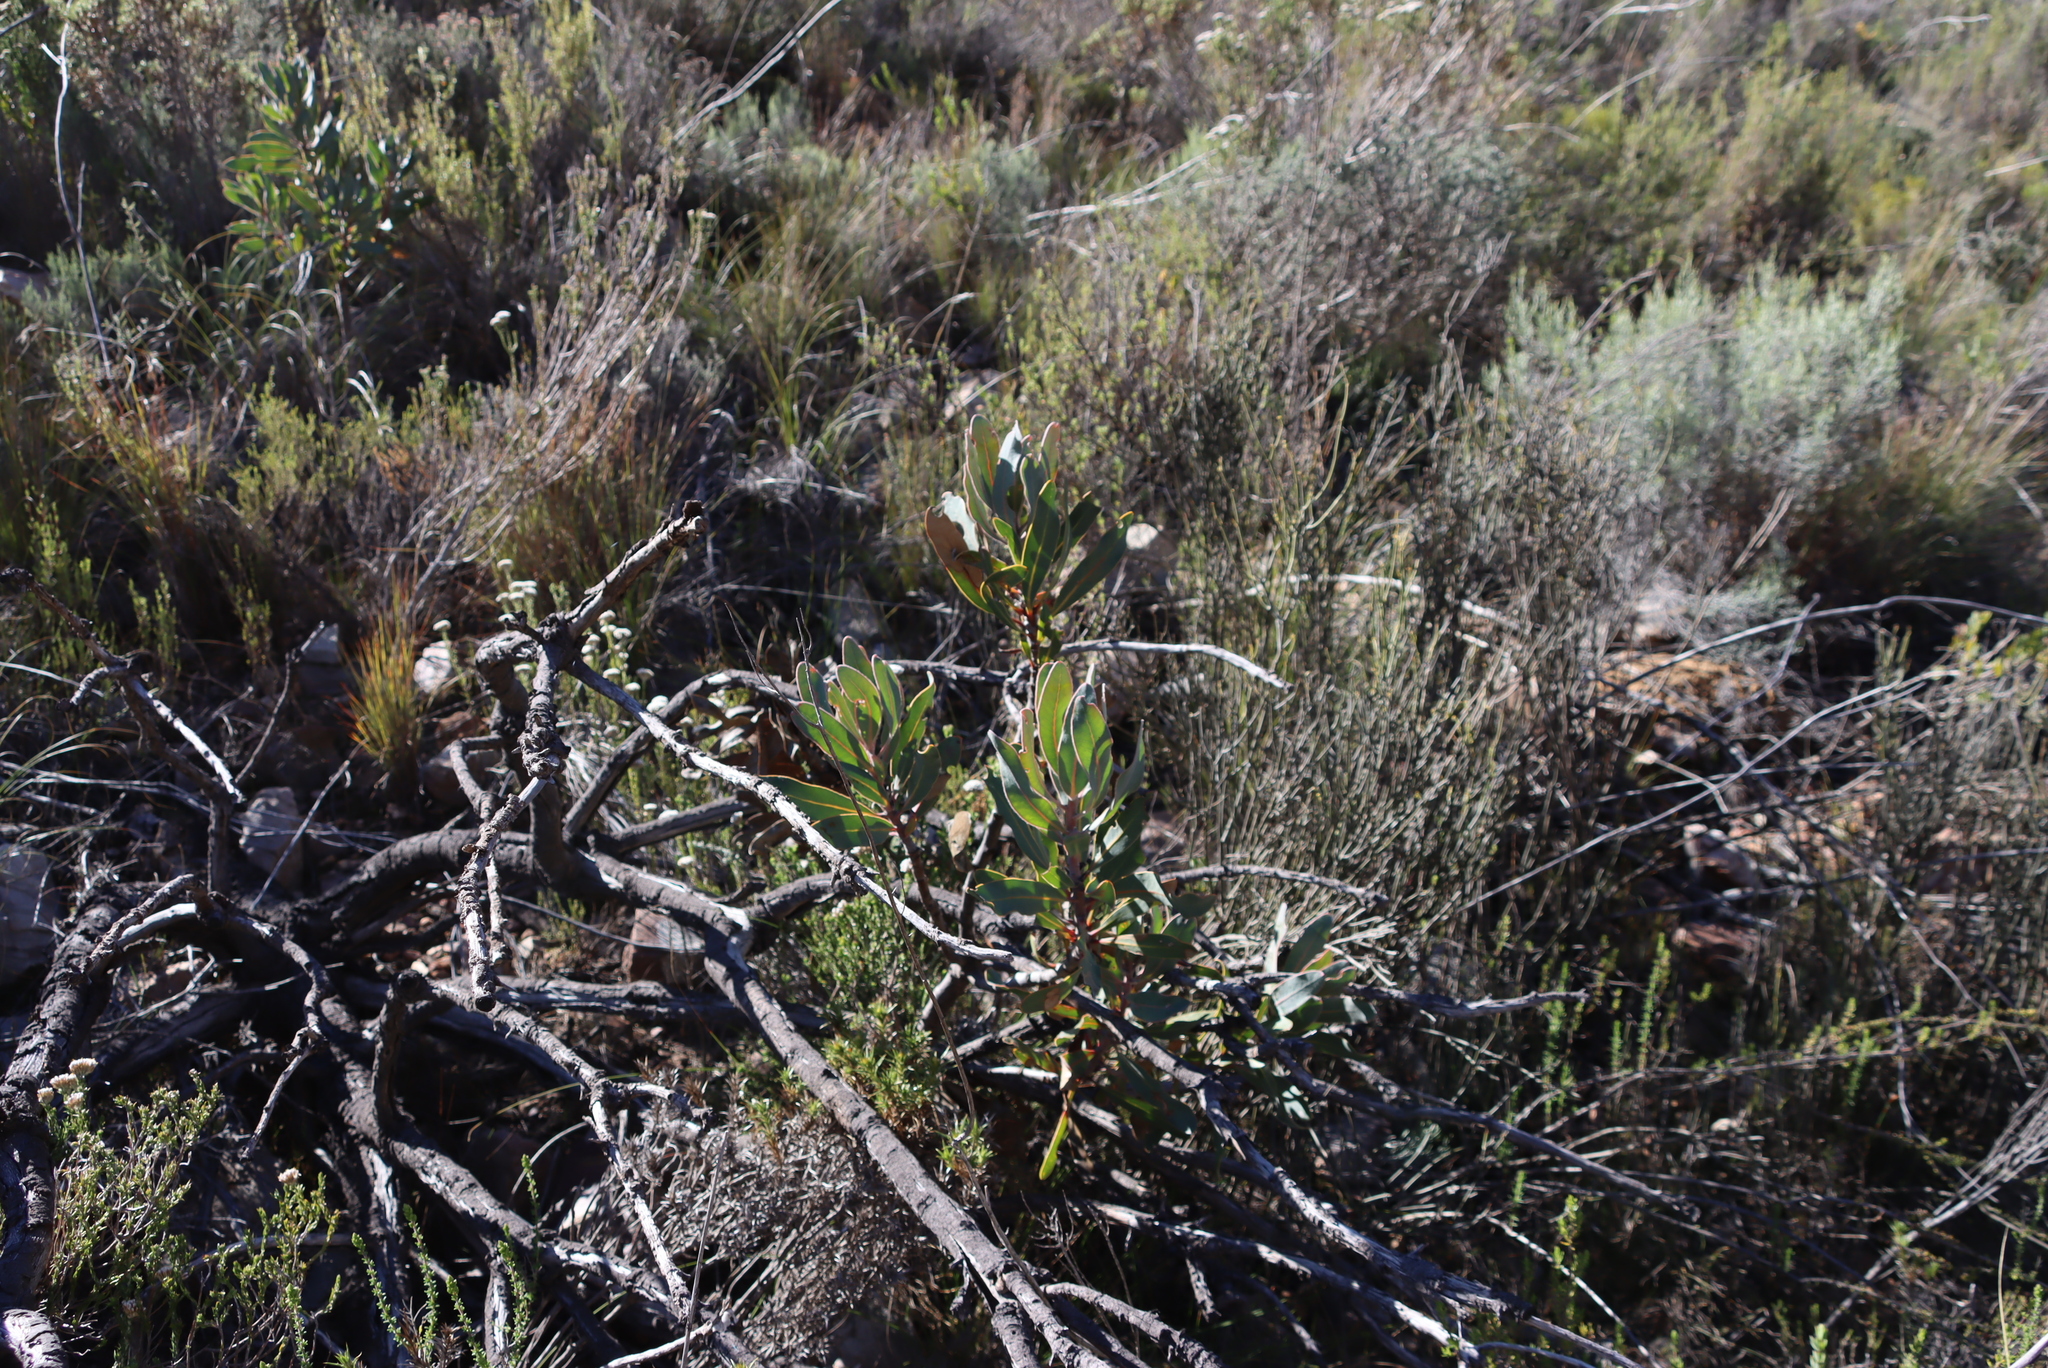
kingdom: Plantae
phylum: Tracheophyta
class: Magnoliopsida
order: Proteales
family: Proteaceae
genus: Protea
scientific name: Protea lorifolia
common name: Strap-leaved protea
